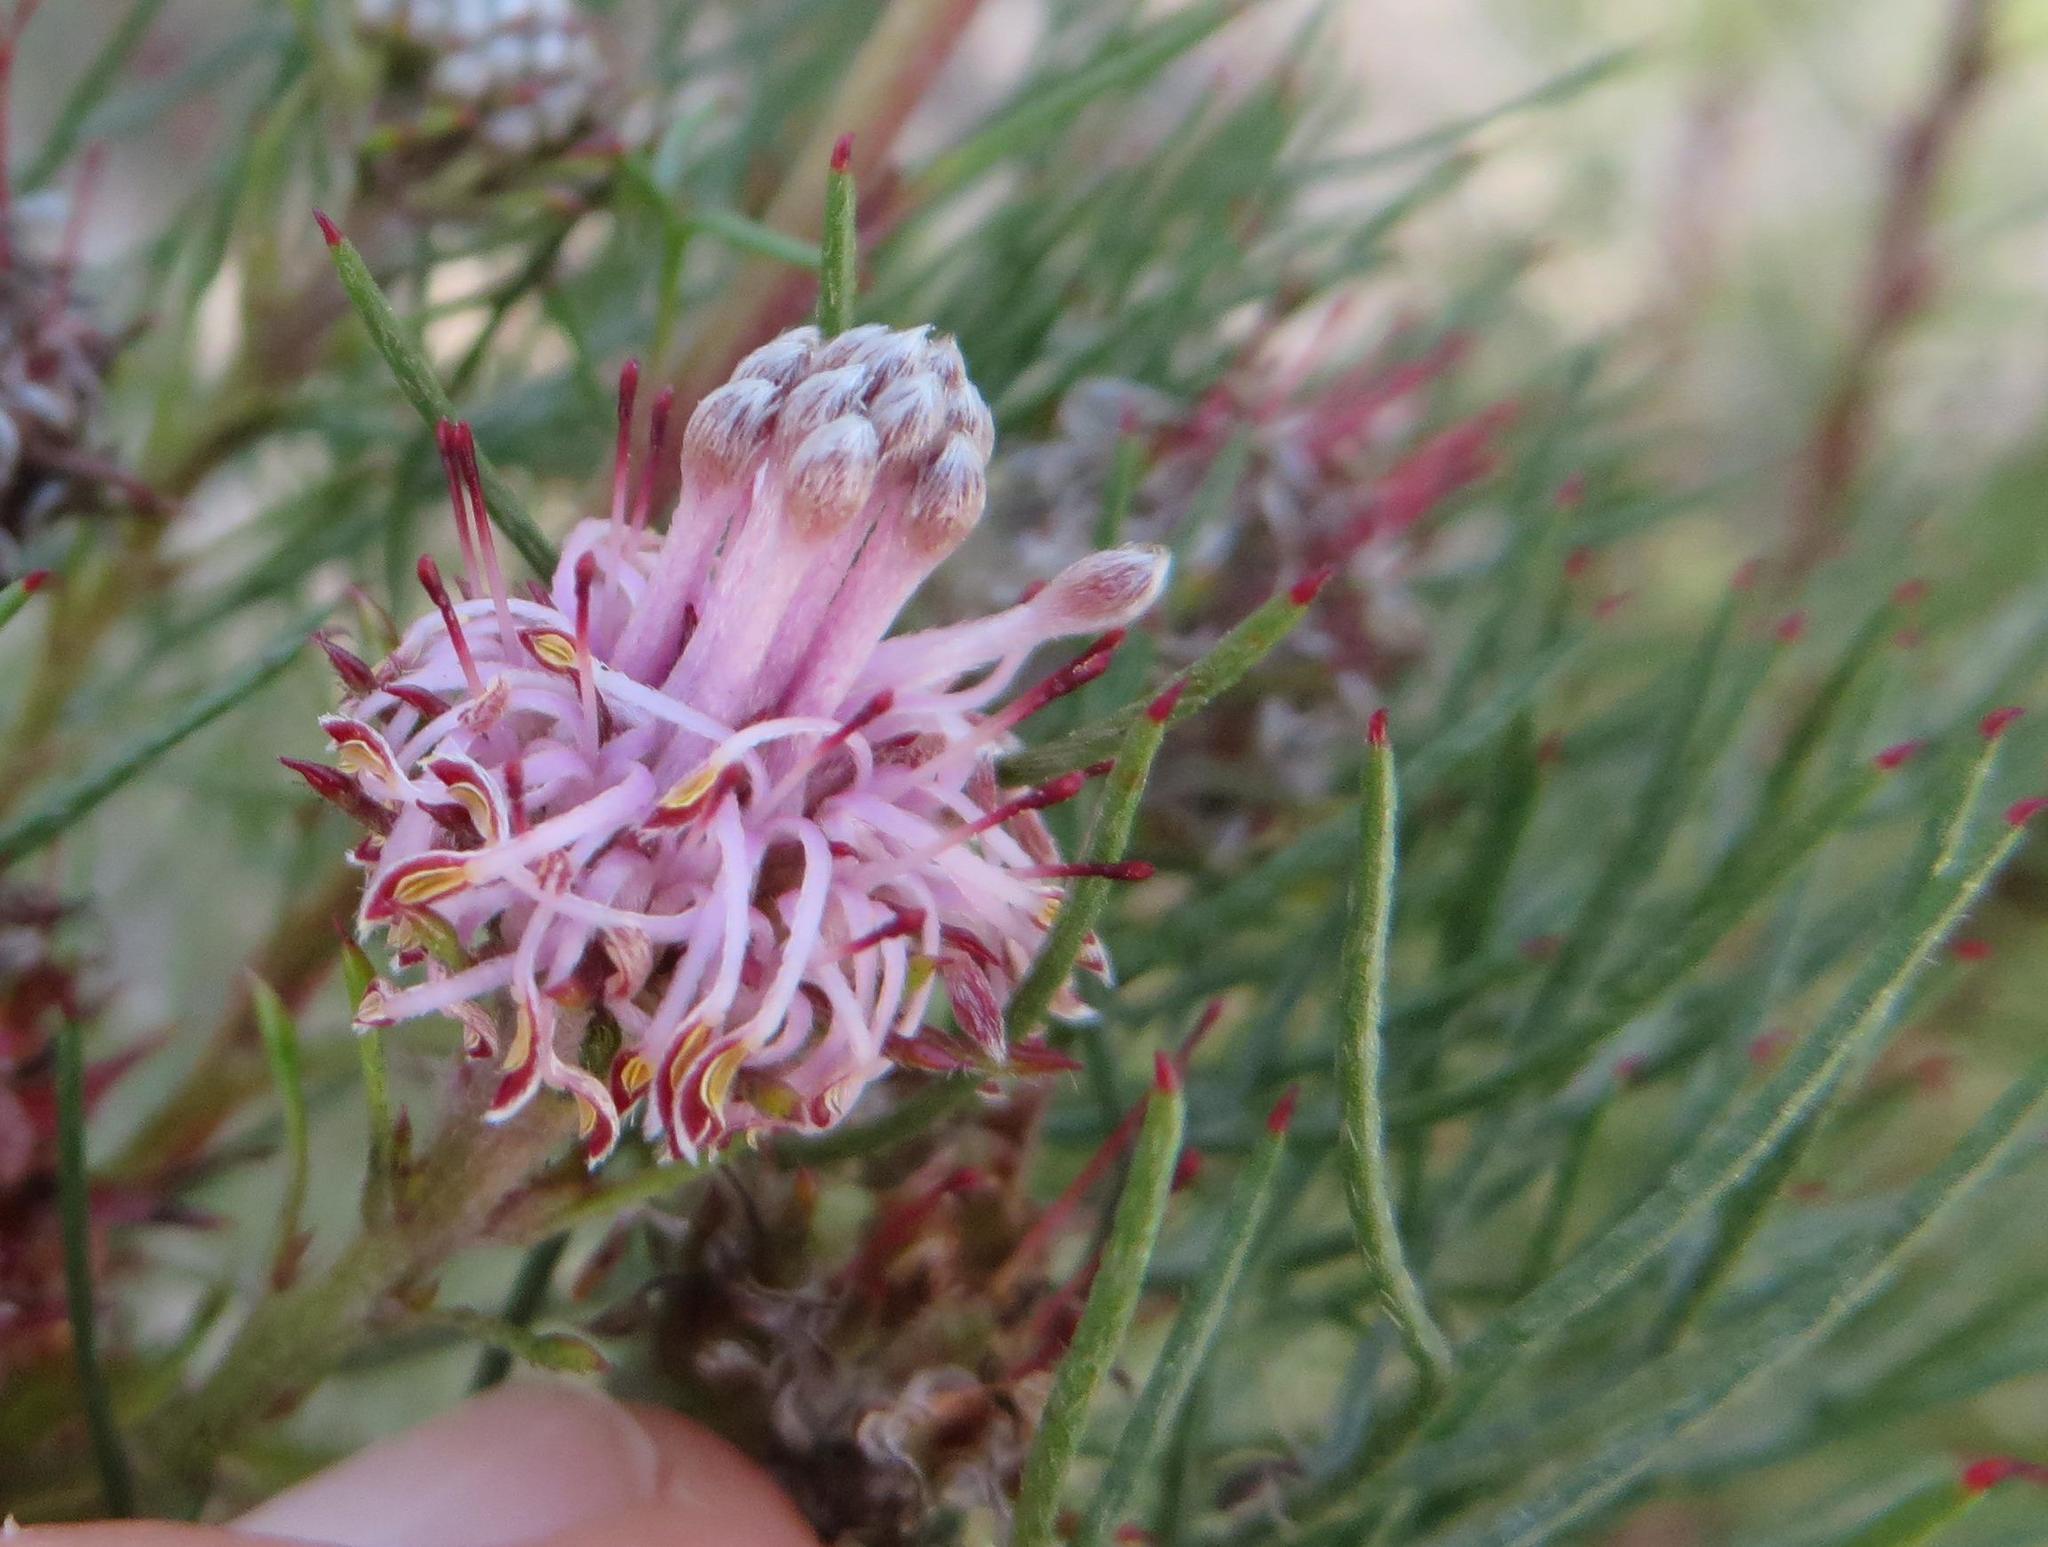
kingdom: Plantae
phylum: Tracheophyta
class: Magnoliopsida
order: Proteales
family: Proteaceae
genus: Serruria
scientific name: Serruria fasciflora
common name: Common pin spiderhead
